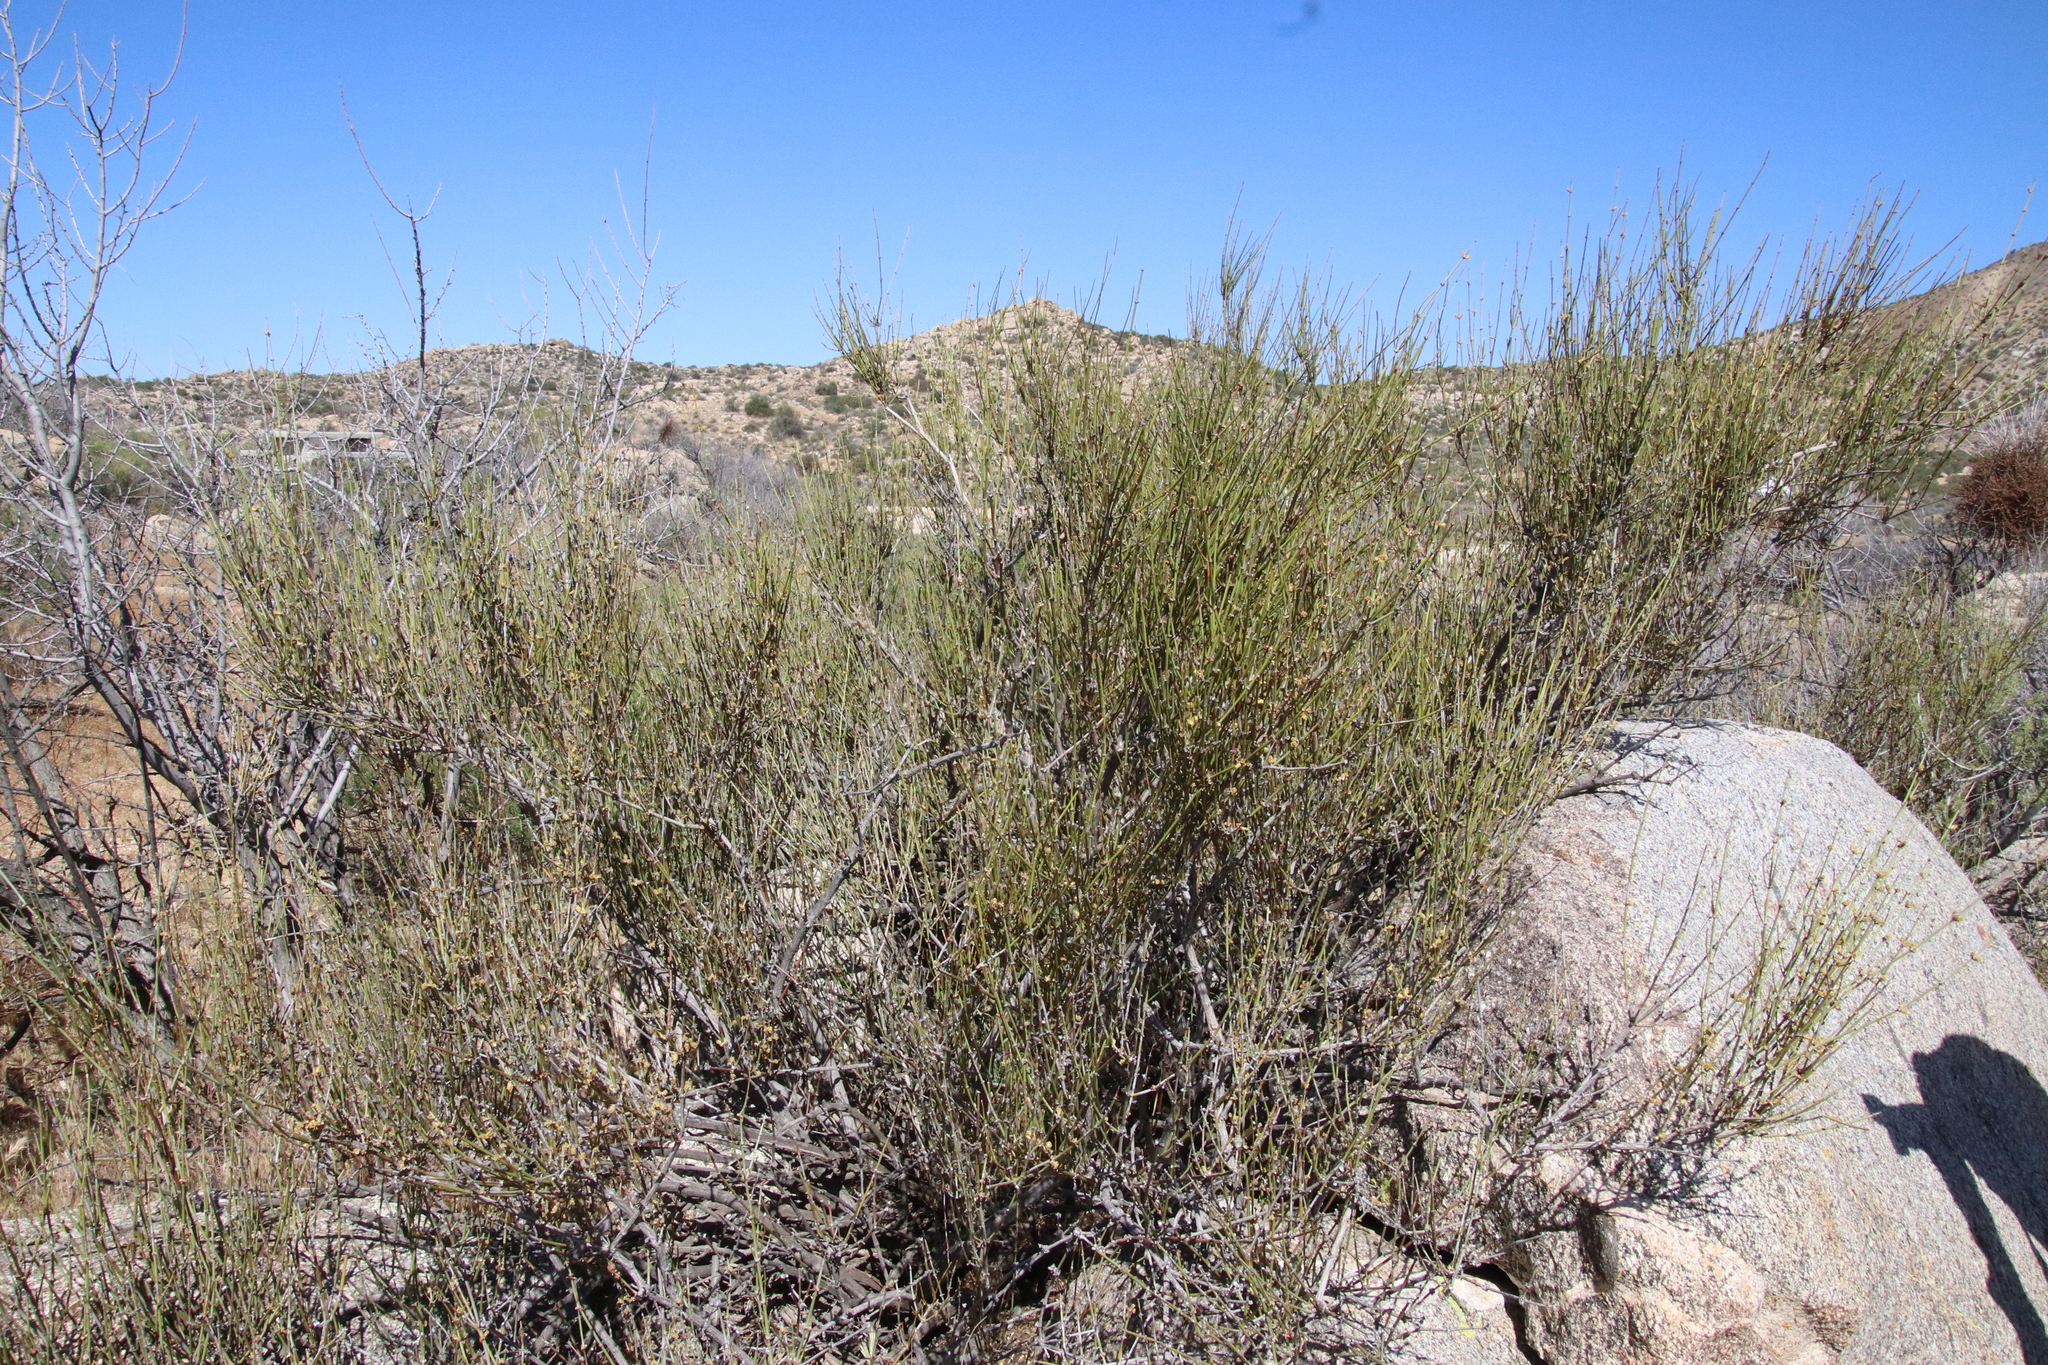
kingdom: Plantae
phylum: Tracheophyta
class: Gnetopsida
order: Ephedrales
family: Ephedraceae
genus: Ephedra
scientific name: Ephedra californica
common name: California ephedra
